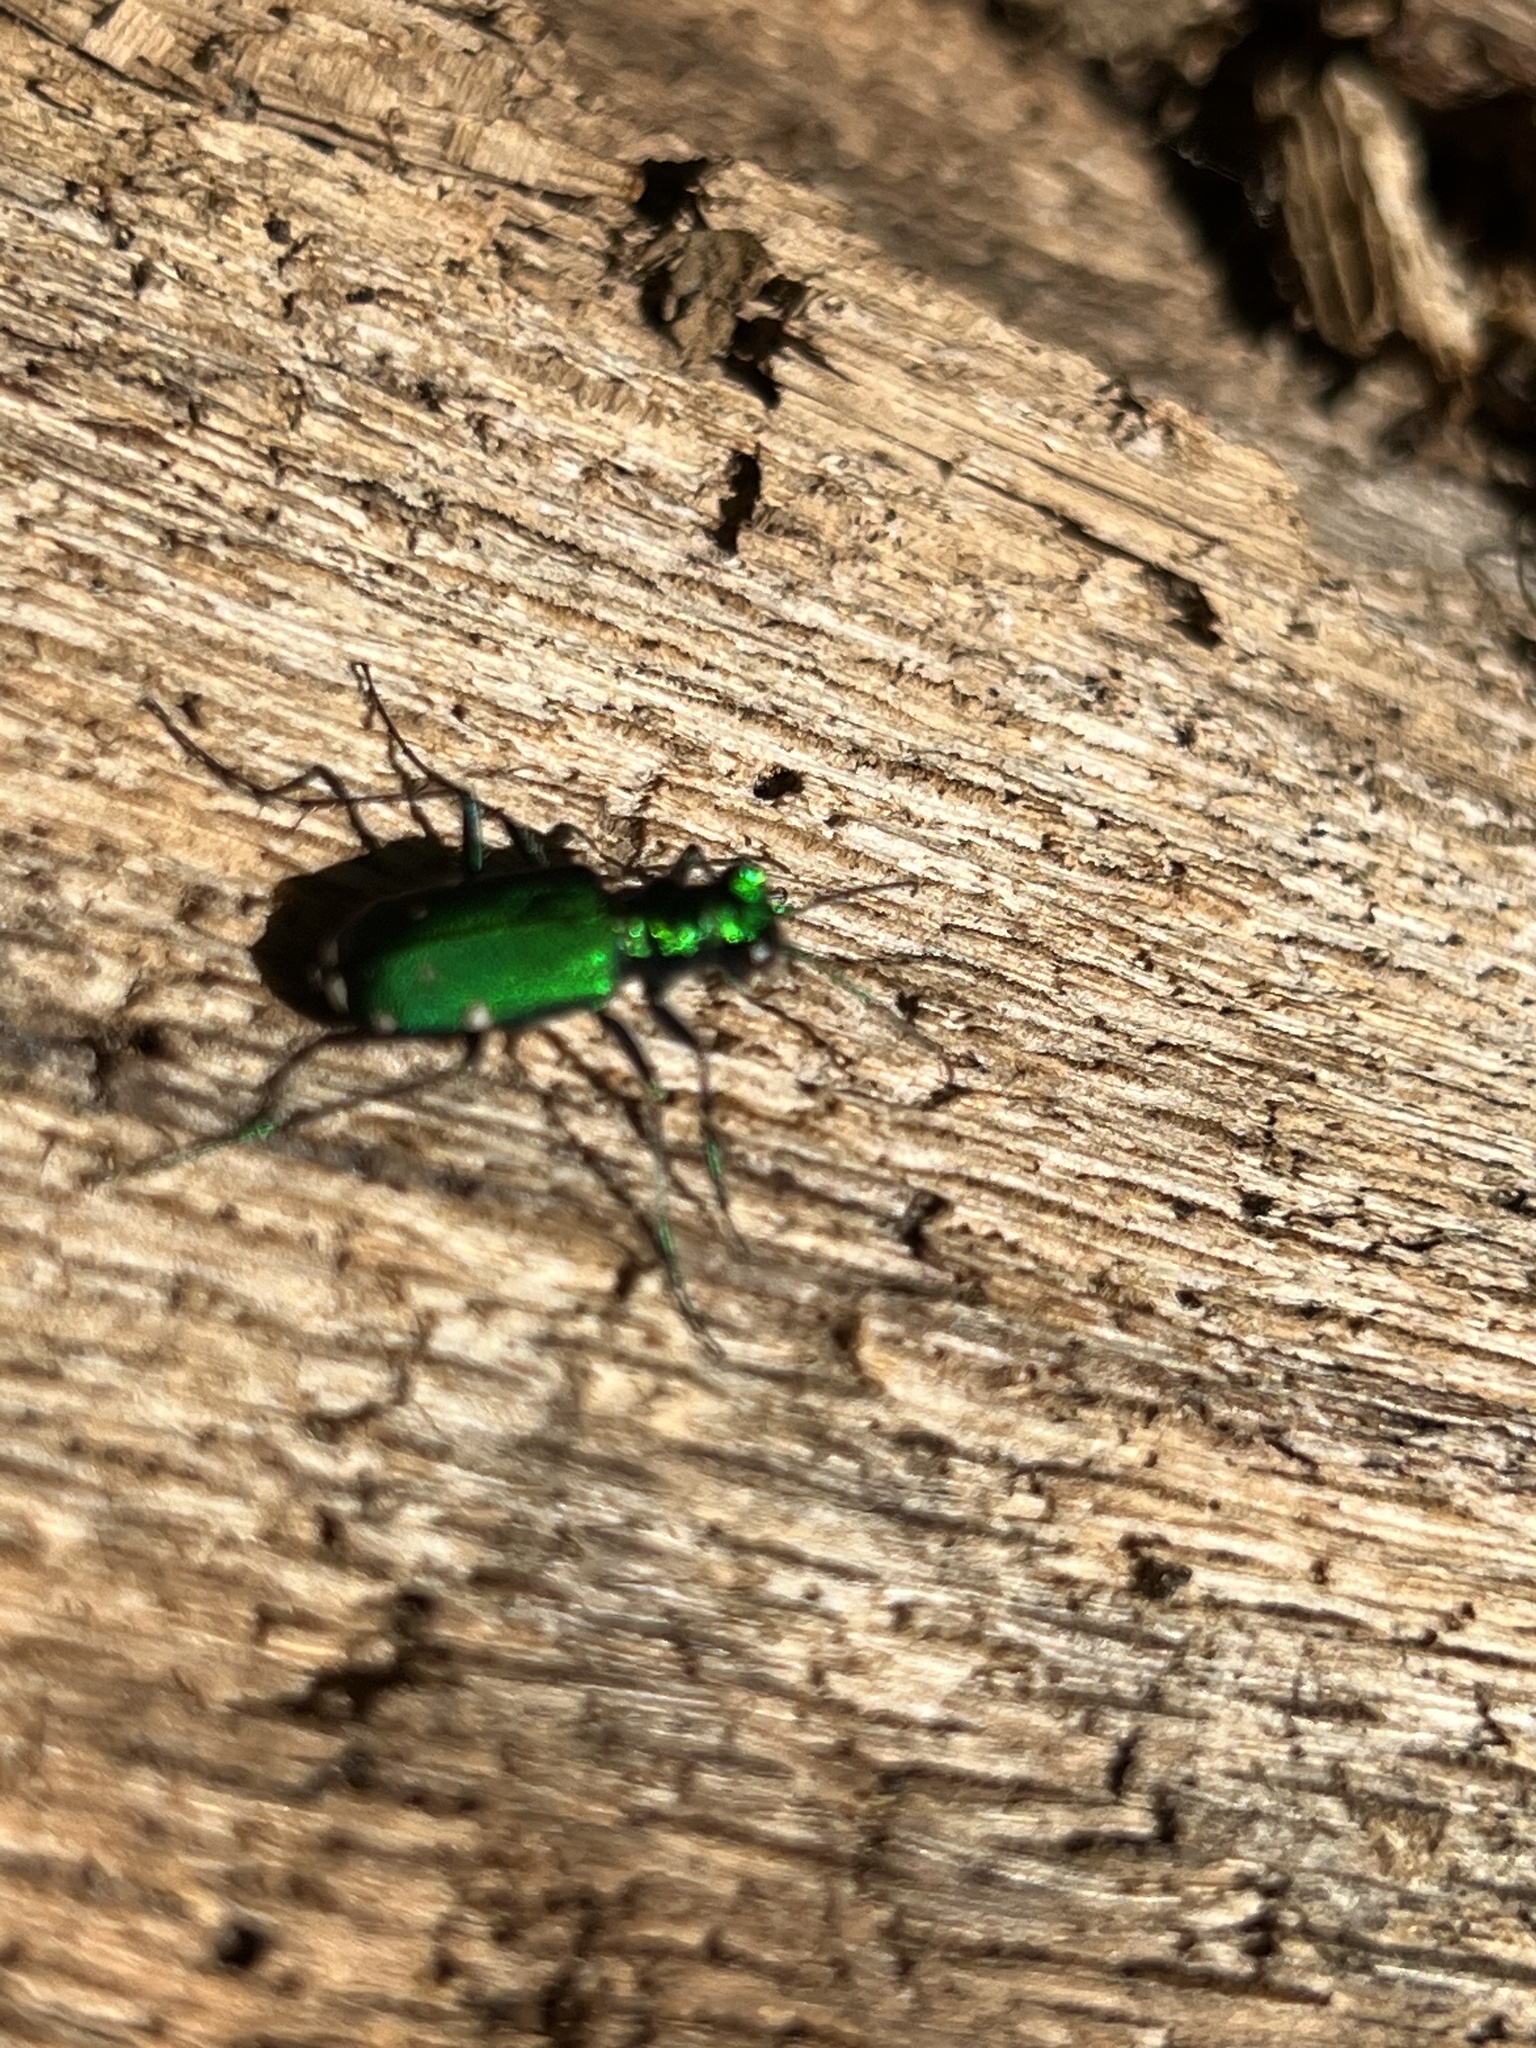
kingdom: Animalia
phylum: Arthropoda
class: Insecta
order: Coleoptera
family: Carabidae
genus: Cicindela
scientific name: Cicindela sexguttata
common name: Six-spotted tiger beetle
